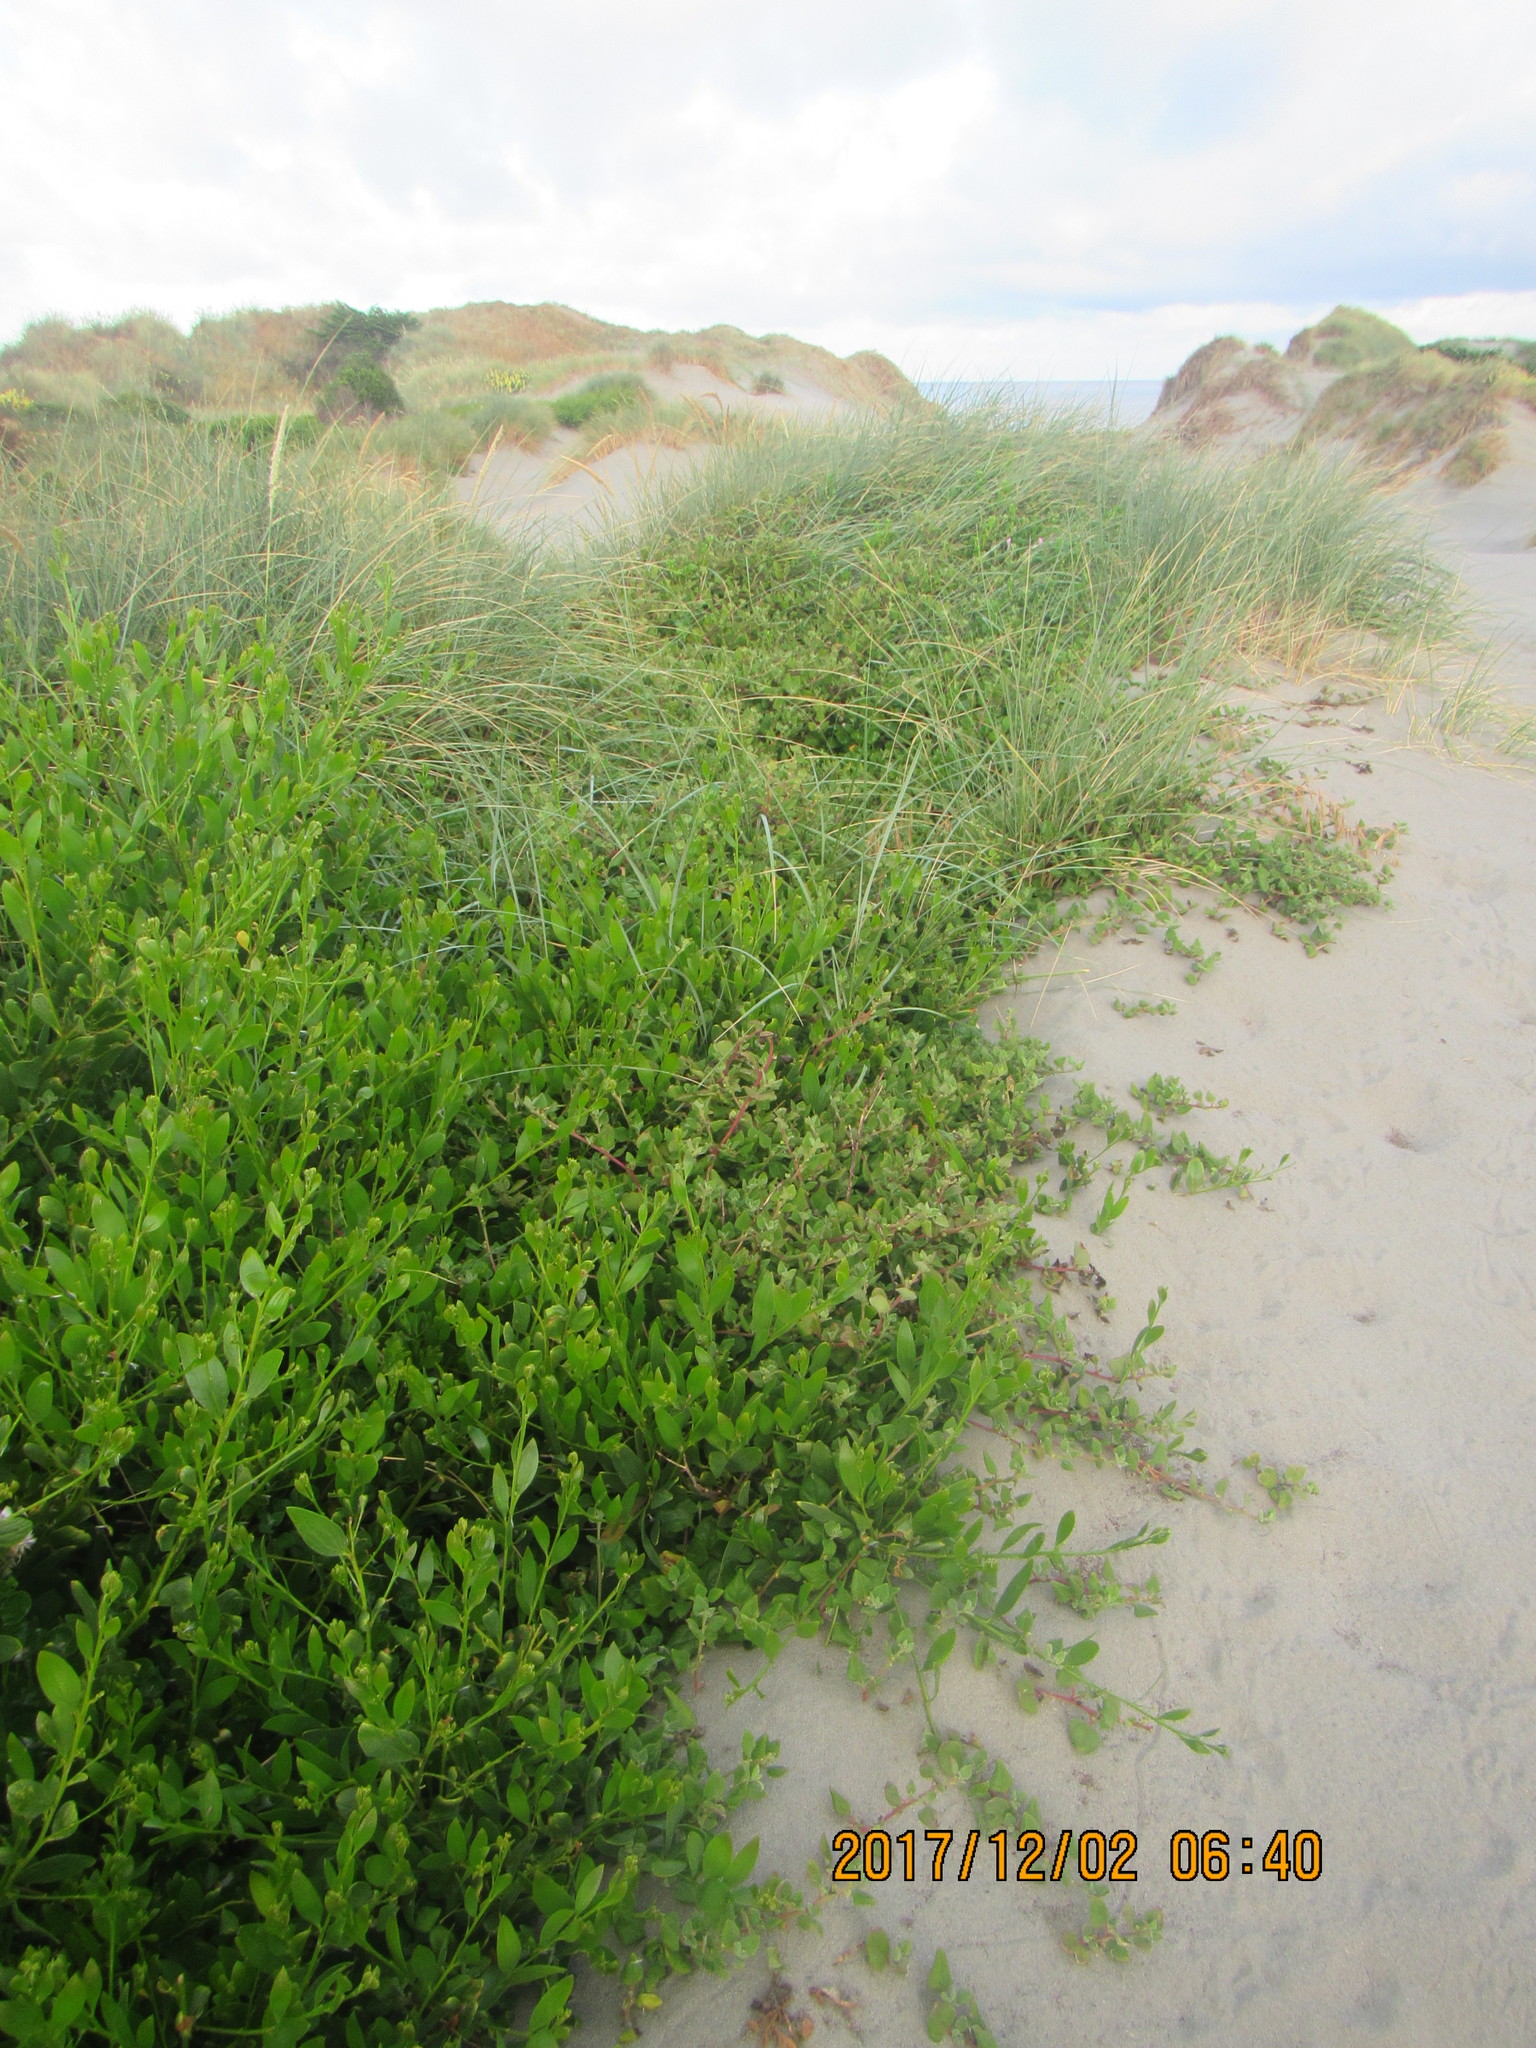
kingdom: Plantae
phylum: Tracheophyta
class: Magnoliopsida
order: Caryophyllales
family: Aizoaceae
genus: Tetragonia
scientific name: Tetragonia implexicoma
